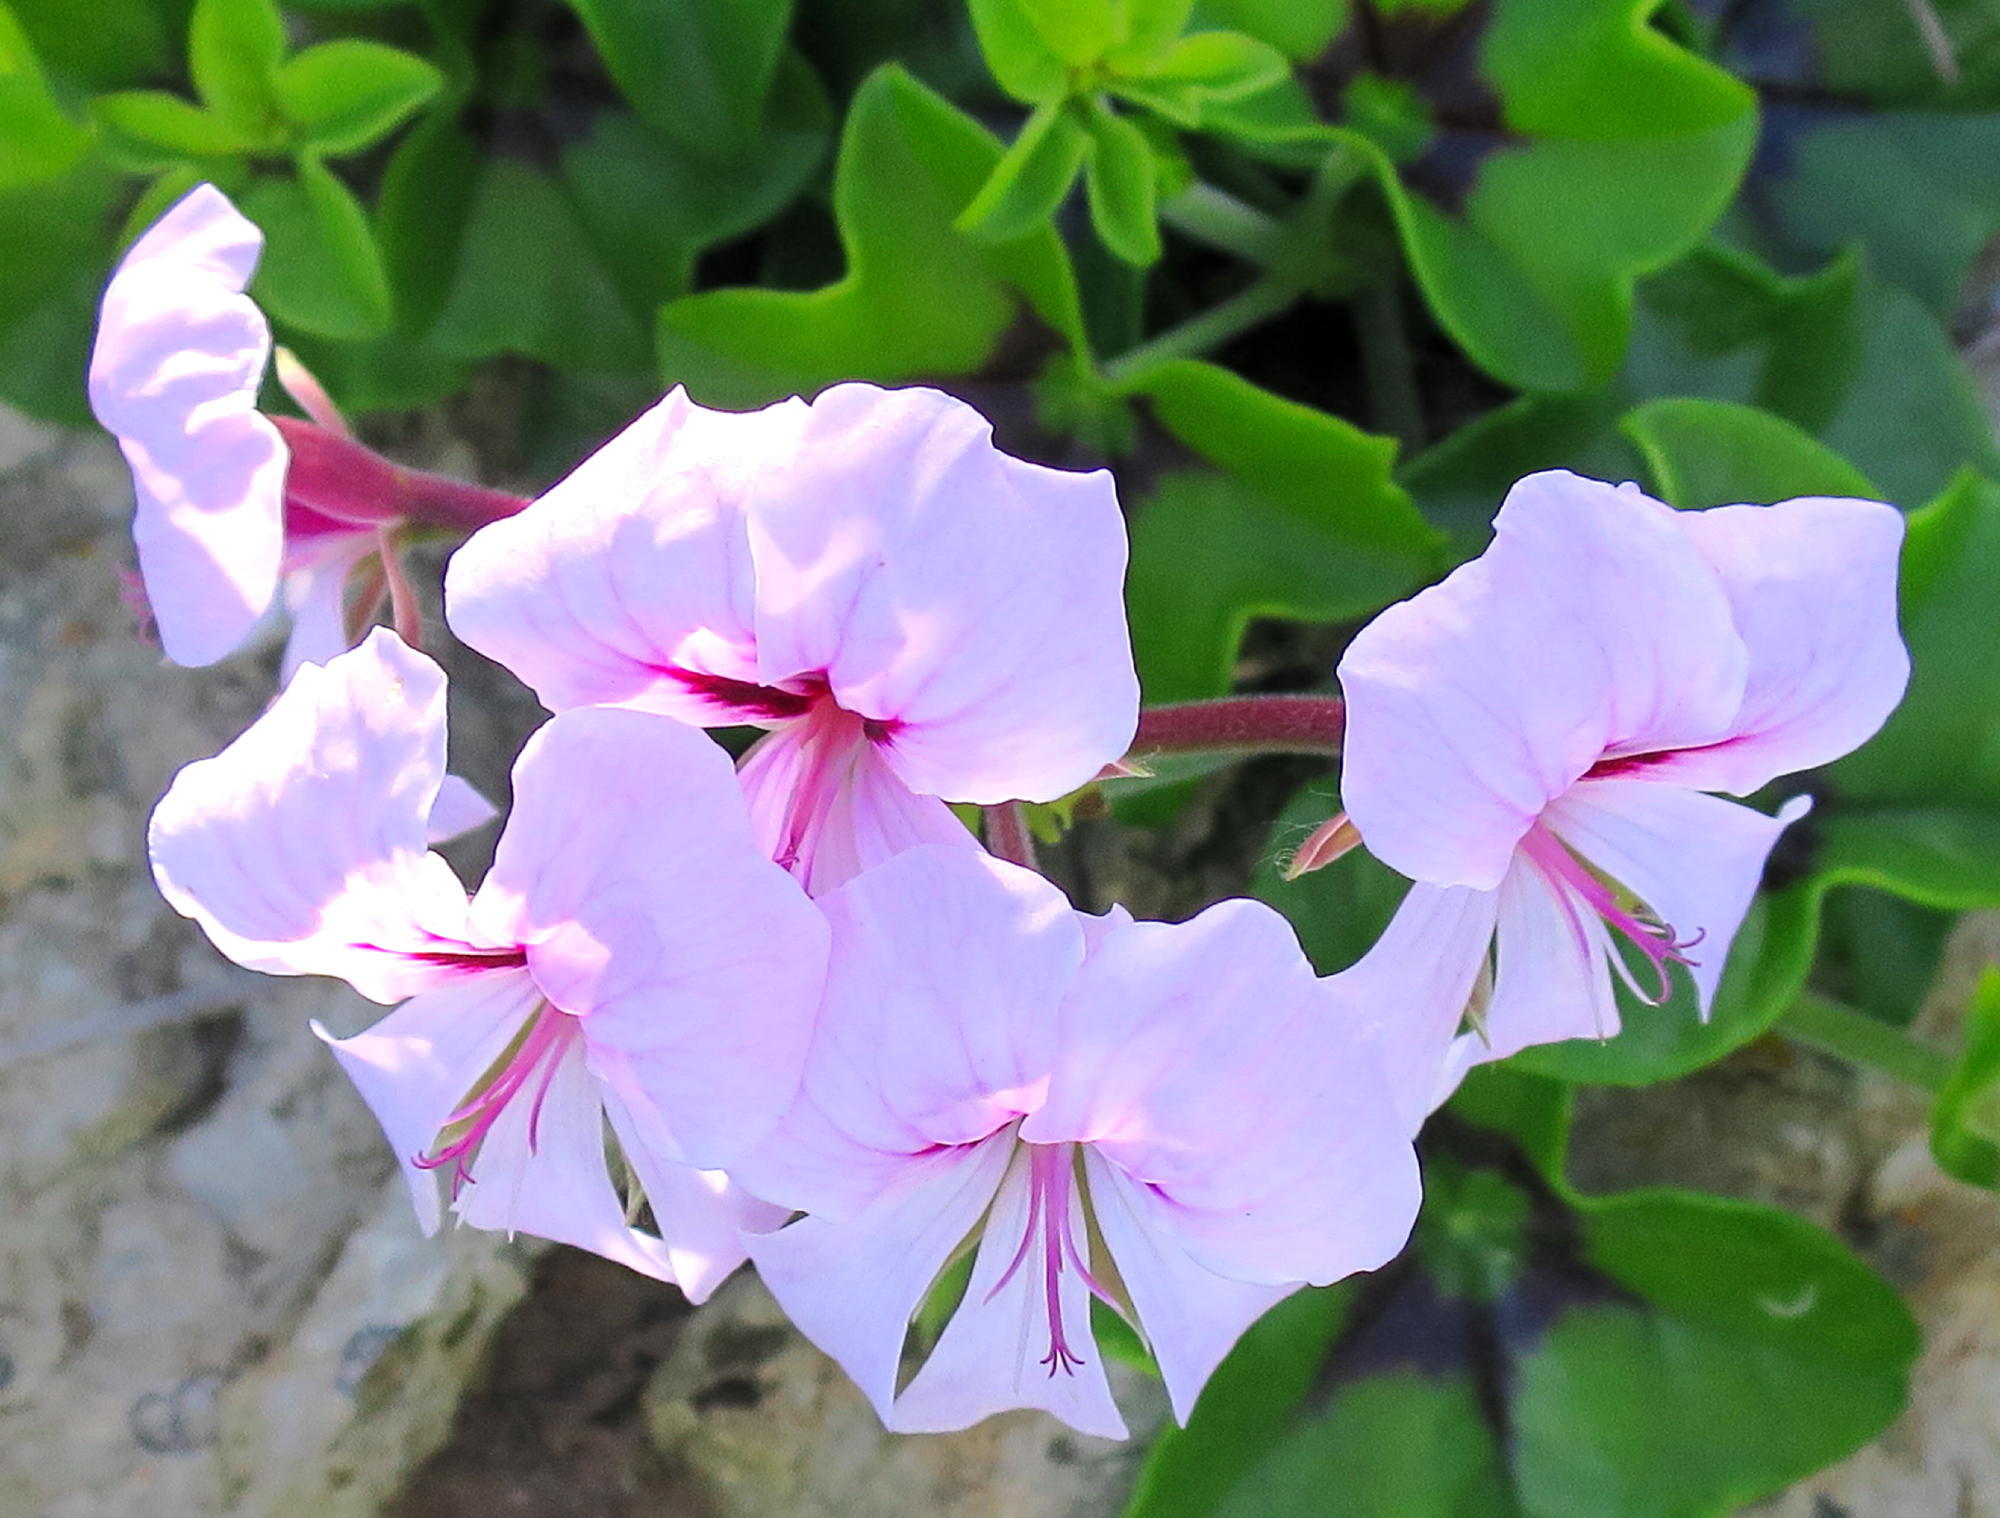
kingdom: Plantae
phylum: Tracheophyta
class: Magnoliopsida
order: Geraniales
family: Geraniaceae
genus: Pelargonium
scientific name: Pelargonium peltatum
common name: Ivyleaf geranium
